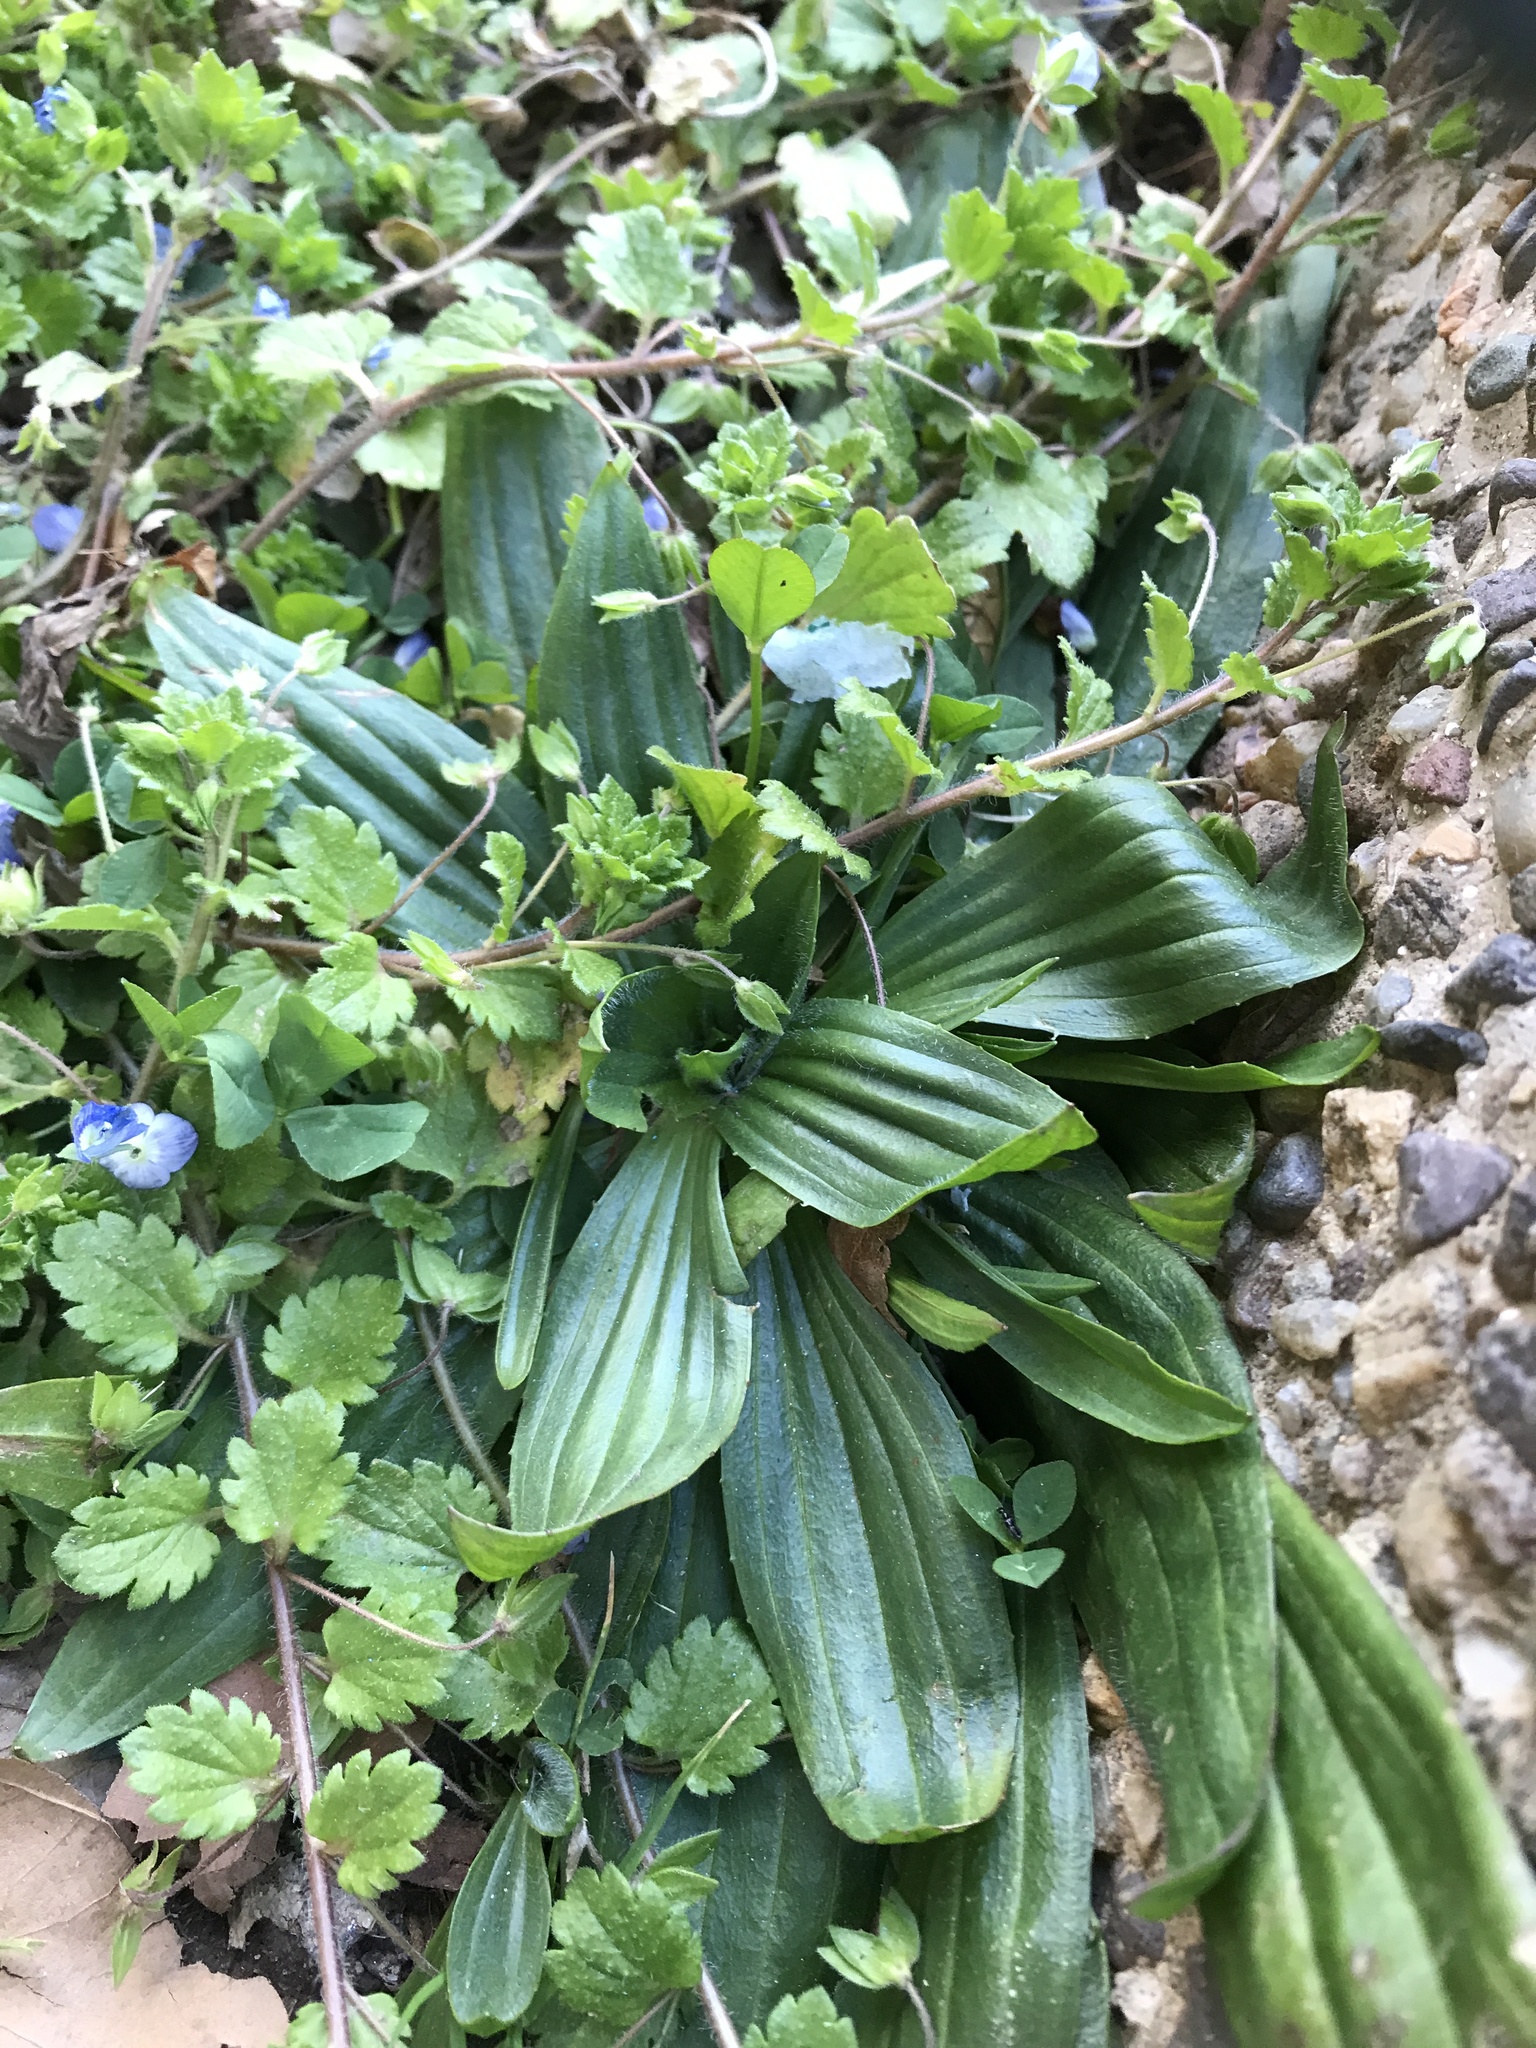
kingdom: Plantae
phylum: Tracheophyta
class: Magnoliopsida
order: Lamiales
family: Plantaginaceae
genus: Plantago
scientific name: Plantago lanceolata
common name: Ribwort plantain
